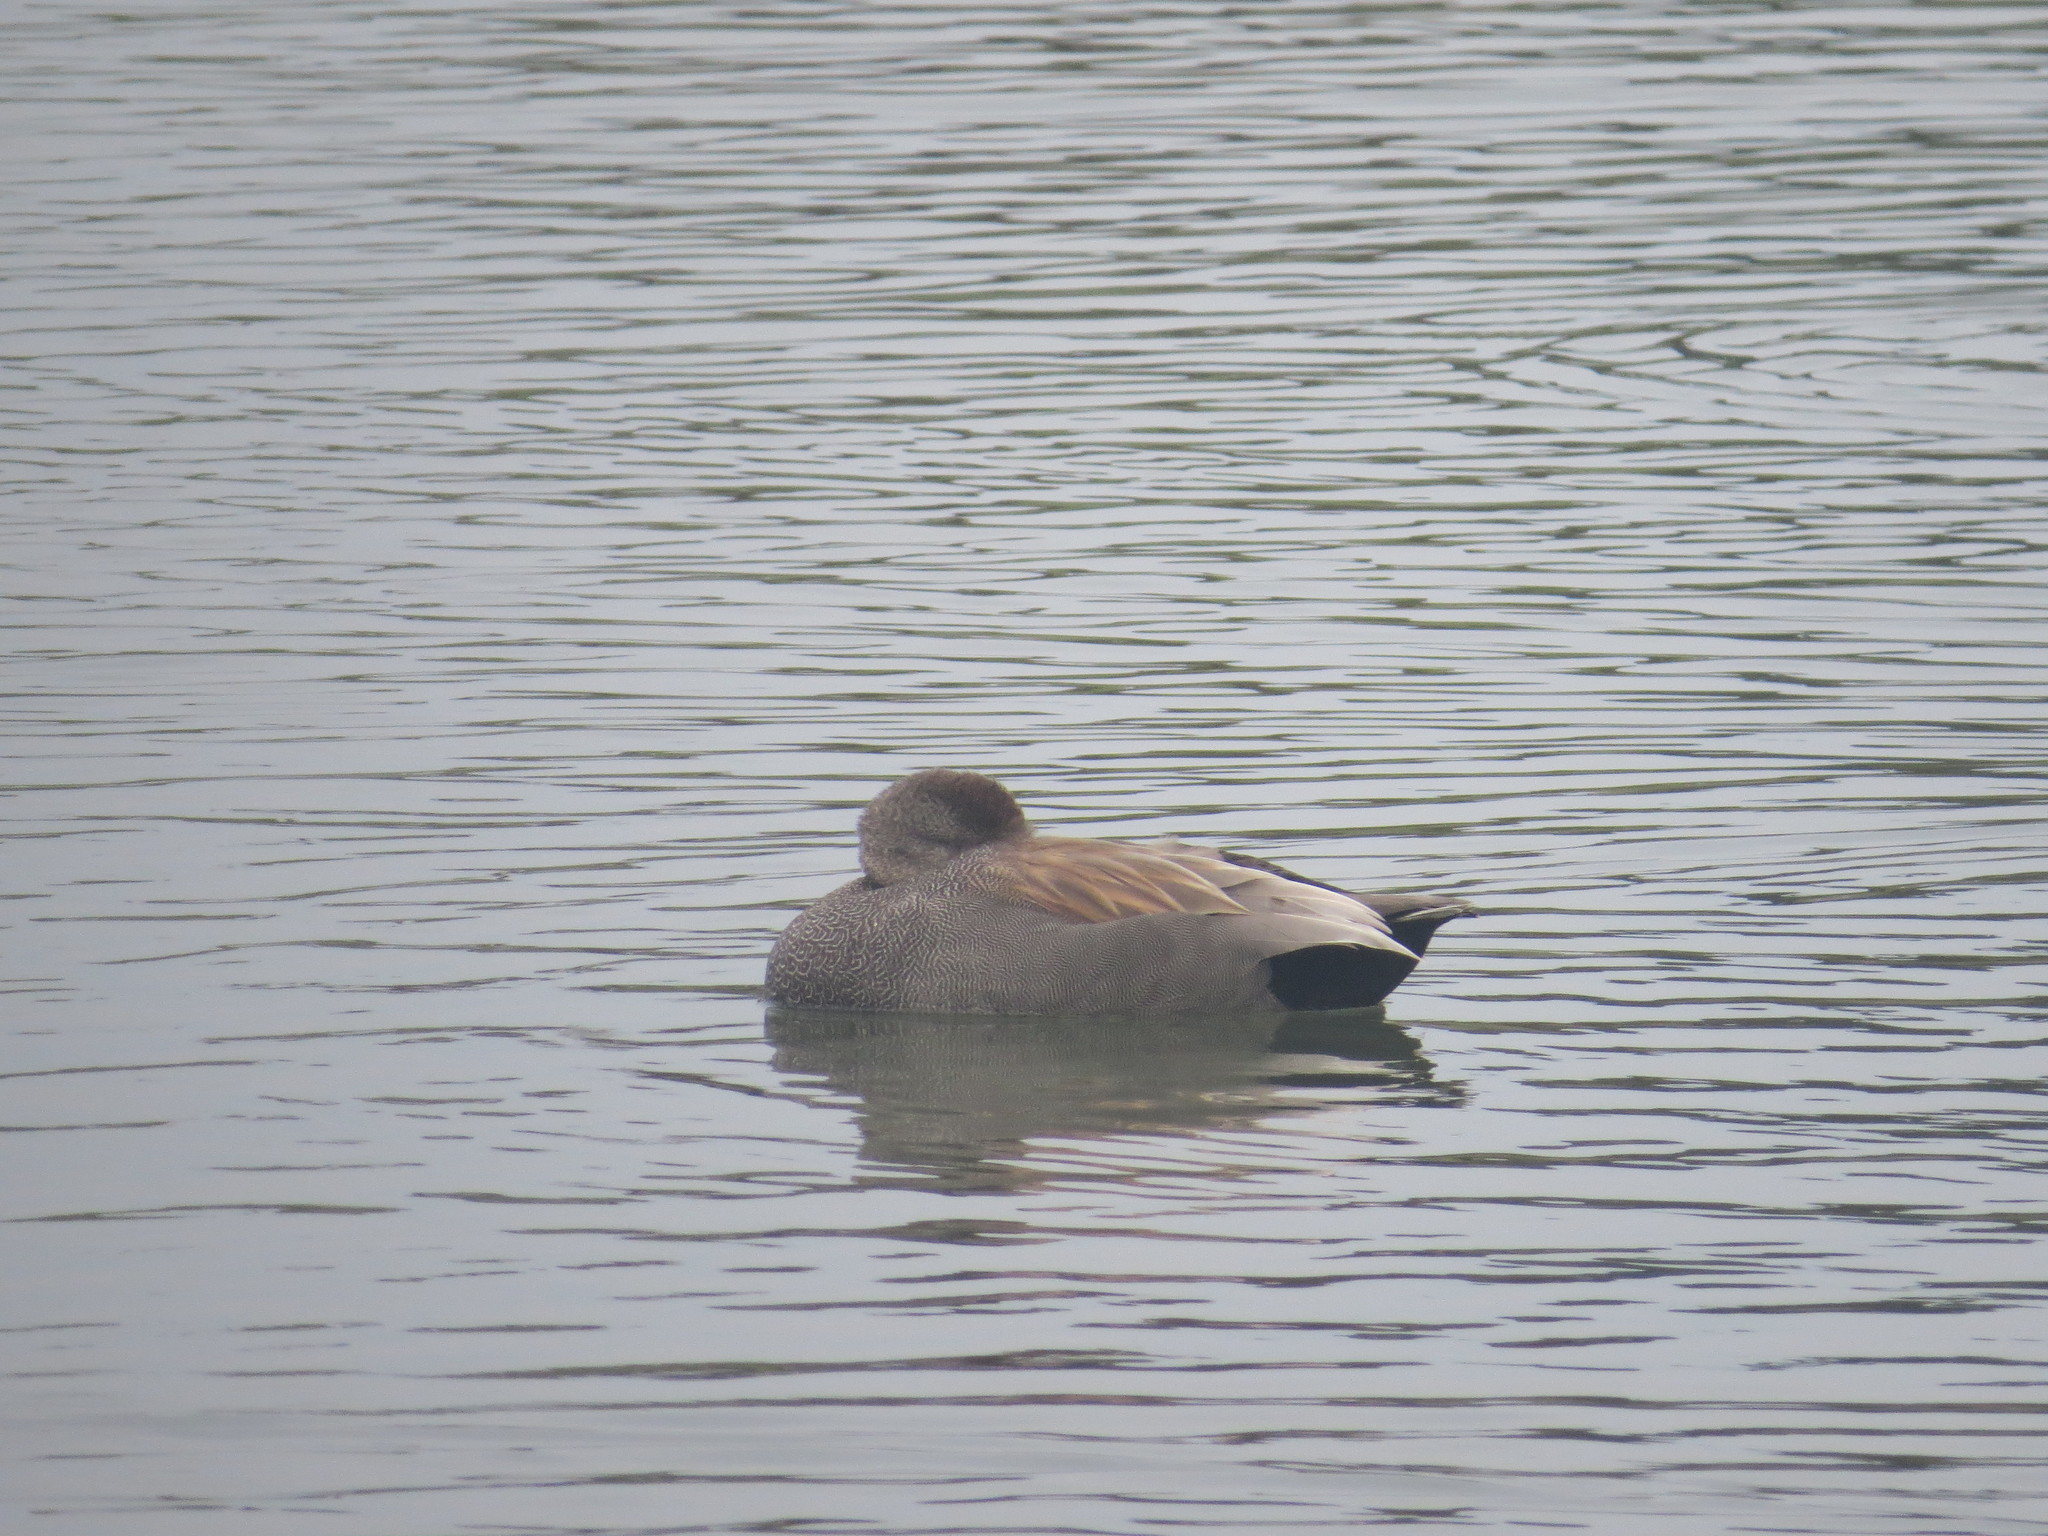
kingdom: Animalia
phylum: Chordata
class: Aves
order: Anseriformes
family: Anatidae
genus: Mareca
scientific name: Mareca strepera
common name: Gadwall
